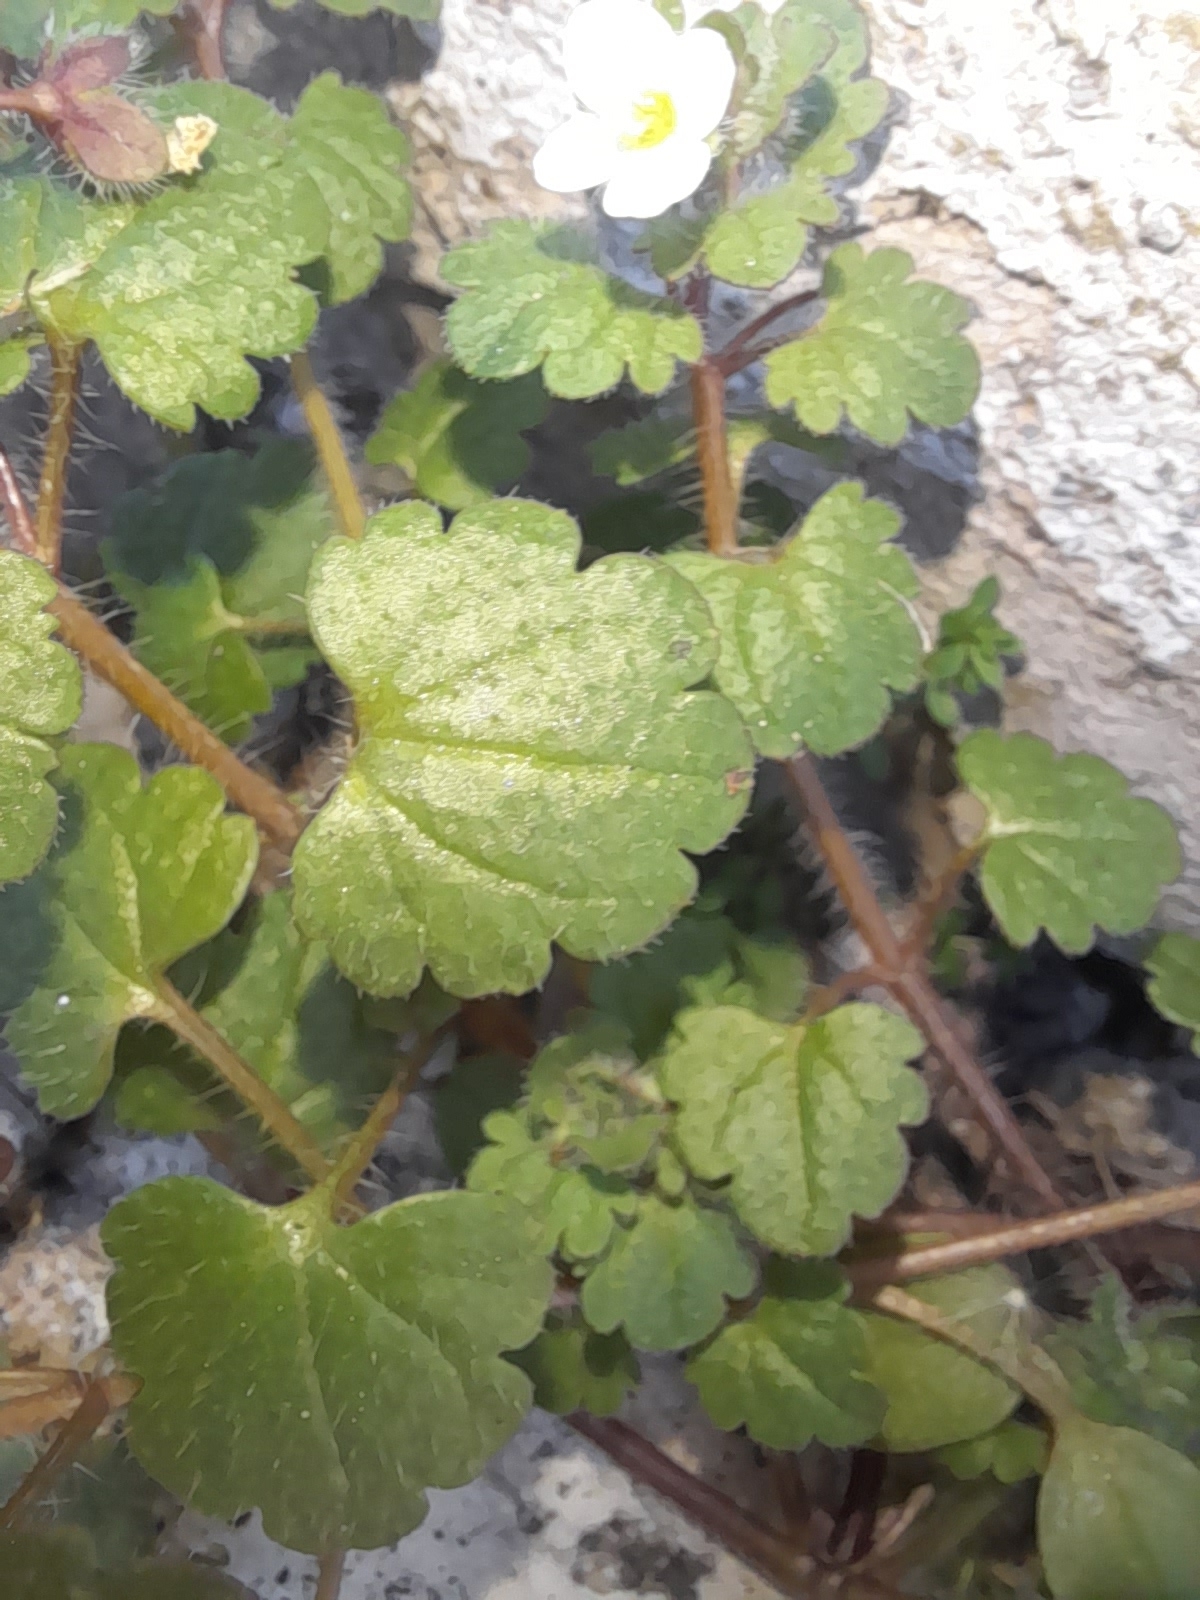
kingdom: Plantae
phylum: Tracheophyta
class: Magnoliopsida
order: Lamiales
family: Plantaginaceae
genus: Veronica
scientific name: Veronica cymbalaria
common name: Pale speedwell
